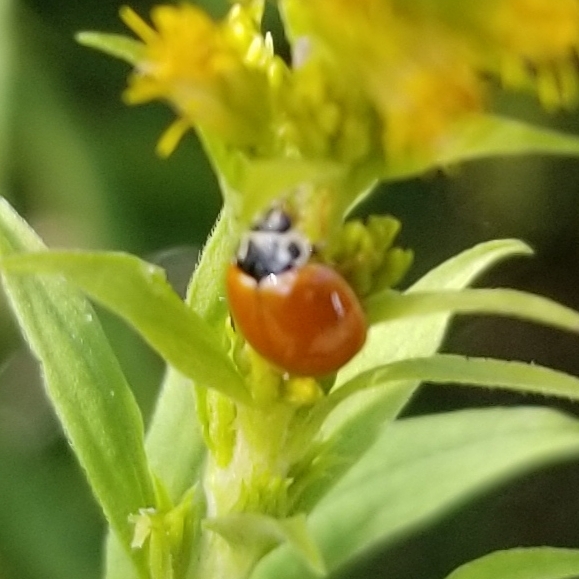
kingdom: Animalia
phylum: Arthropoda
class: Insecta
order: Coleoptera
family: Coccinellidae
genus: Cycloneda
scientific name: Cycloneda munda
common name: Polished lady beetle
